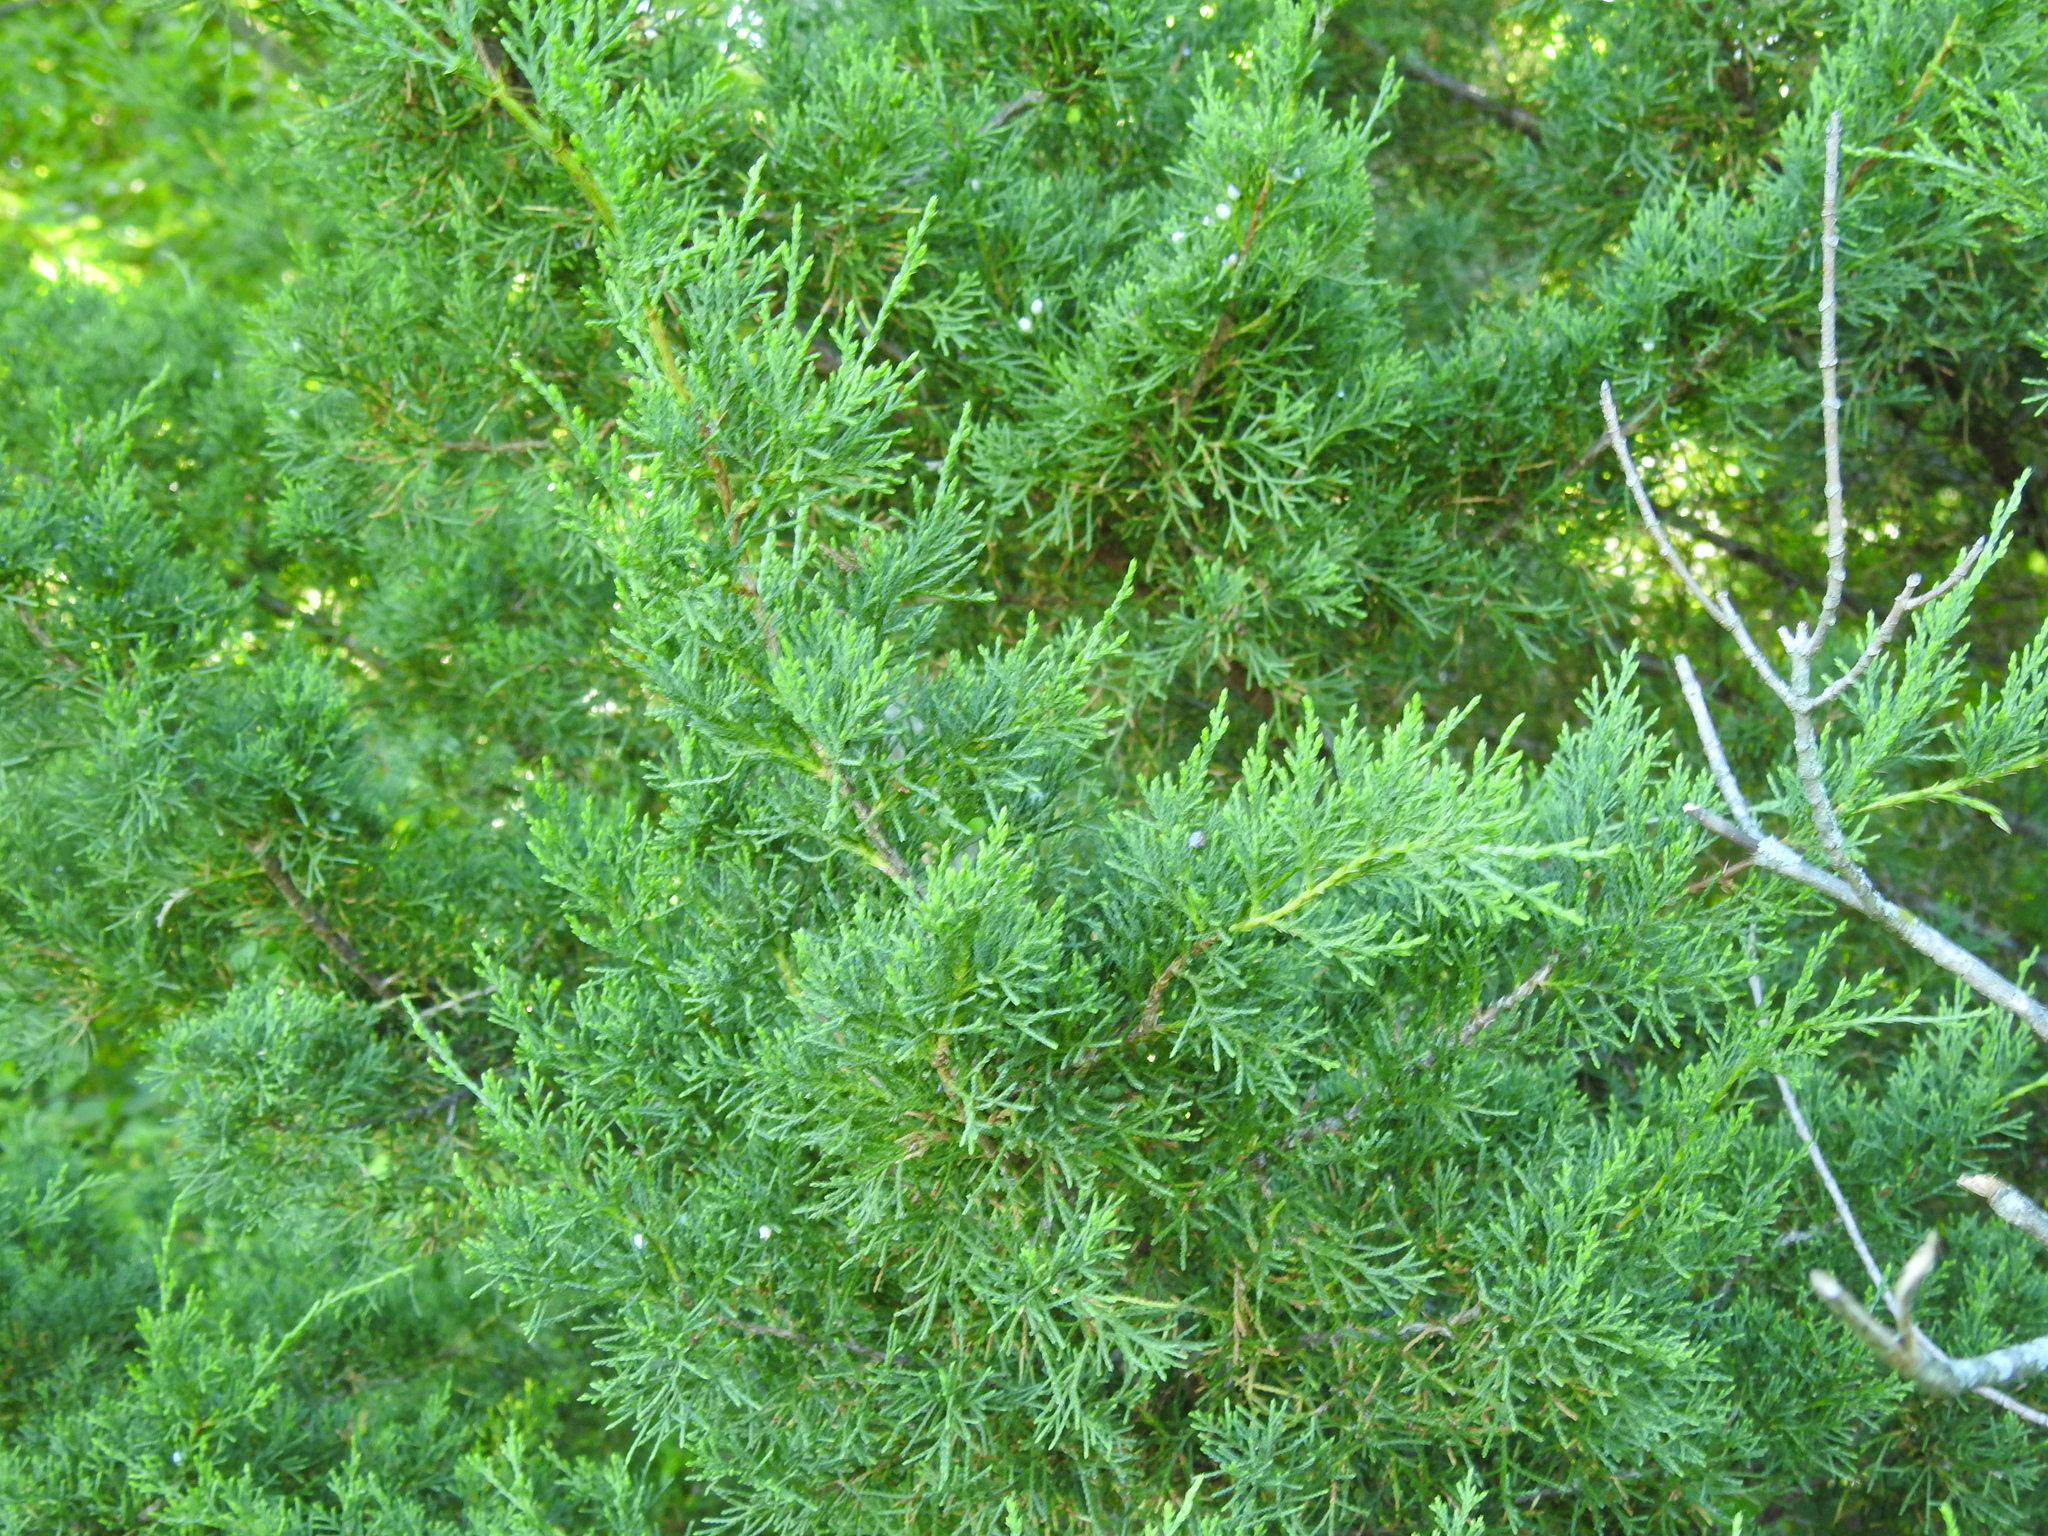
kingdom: Plantae
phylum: Tracheophyta
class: Pinopsida
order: Pinales
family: Cupressaceae
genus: Juniperus
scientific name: Juniperus virginiana
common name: Red juniper
